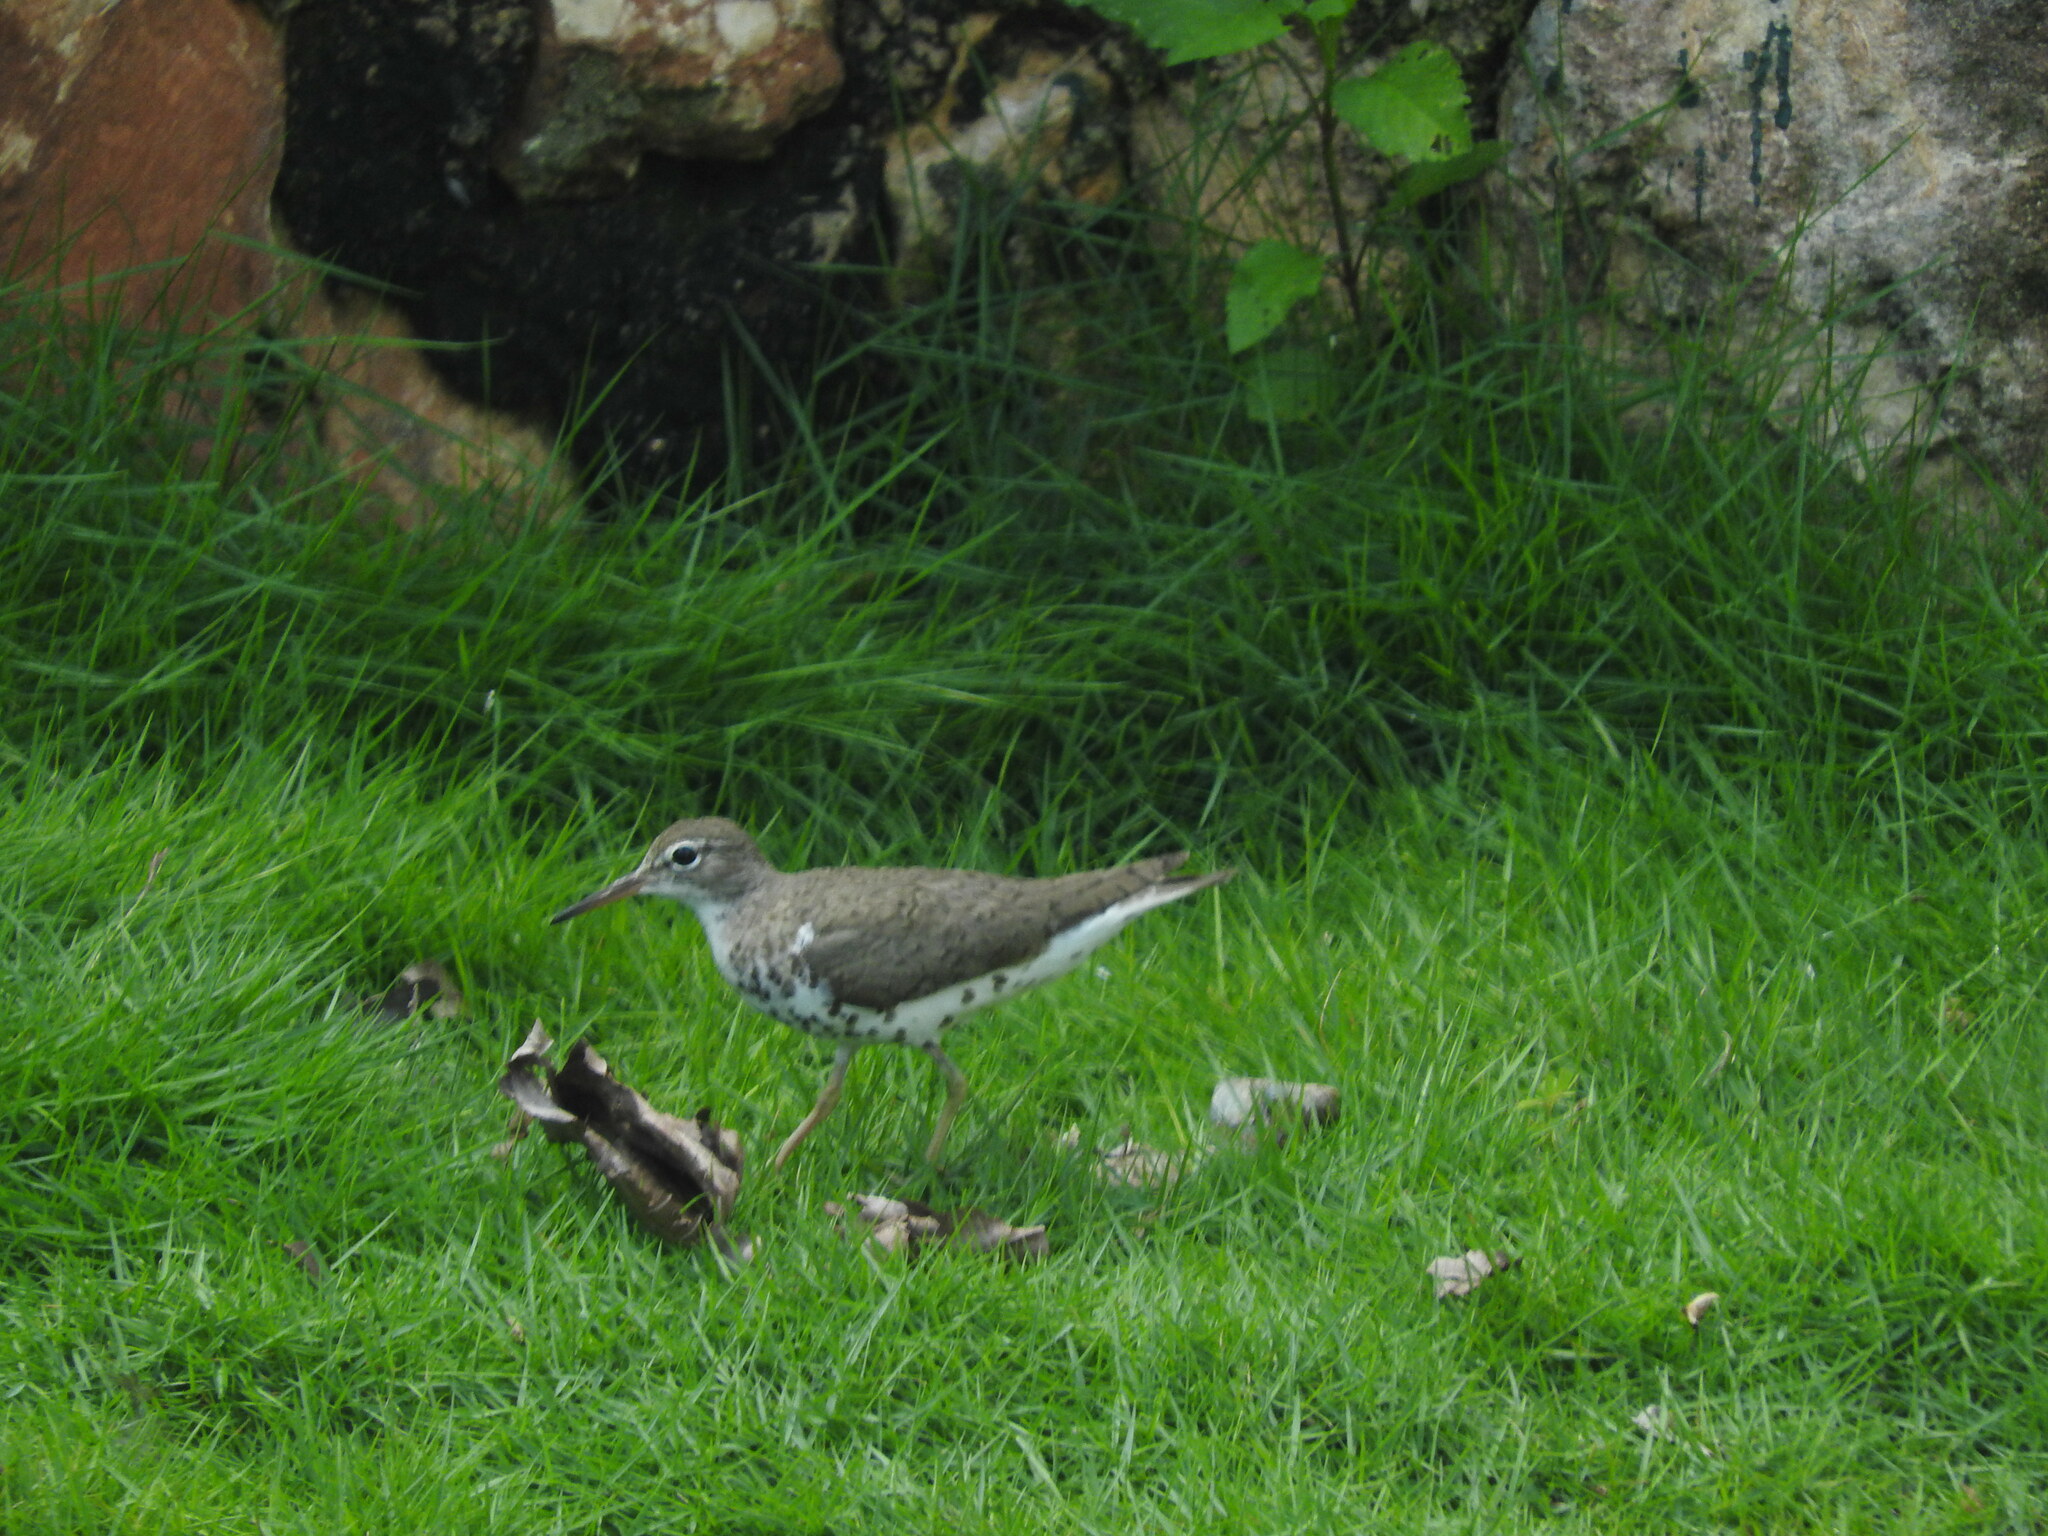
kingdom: Animalia
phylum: Chordata
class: Aves
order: Charadriiformes
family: Scolopacidae
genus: Actitis
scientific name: Actitis macularius
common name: Spotted sandpiper
